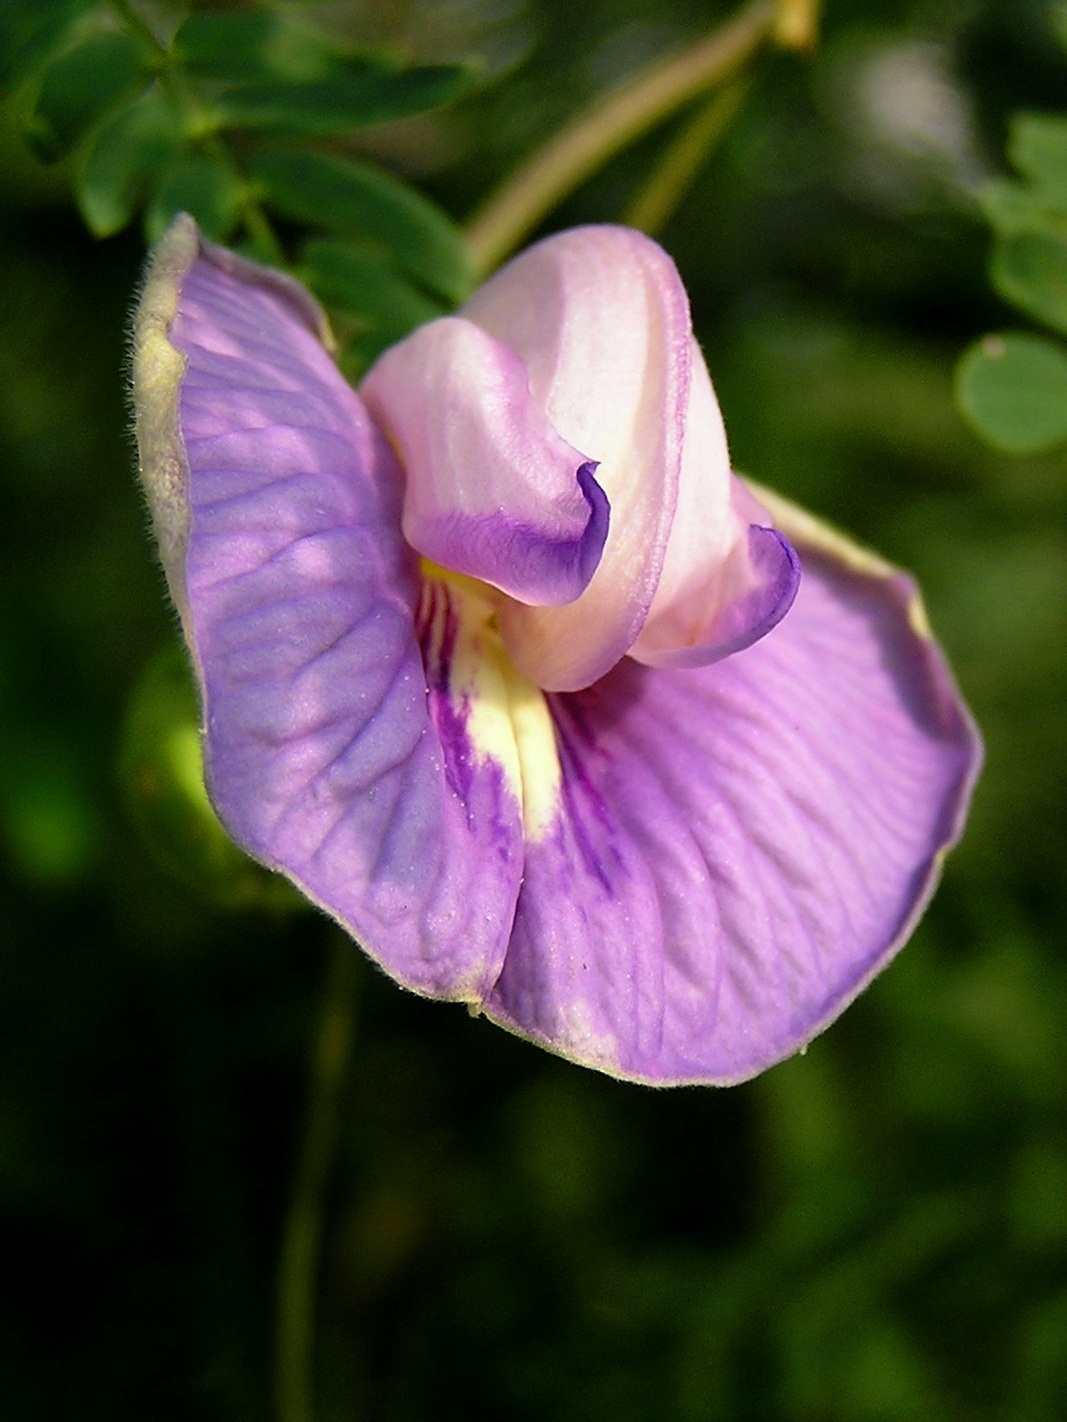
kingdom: Plantae
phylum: Tracheophyta
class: Magnoliopsida
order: Fabales
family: Fabaceae
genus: Centrosema
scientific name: Centrosema pubescens
